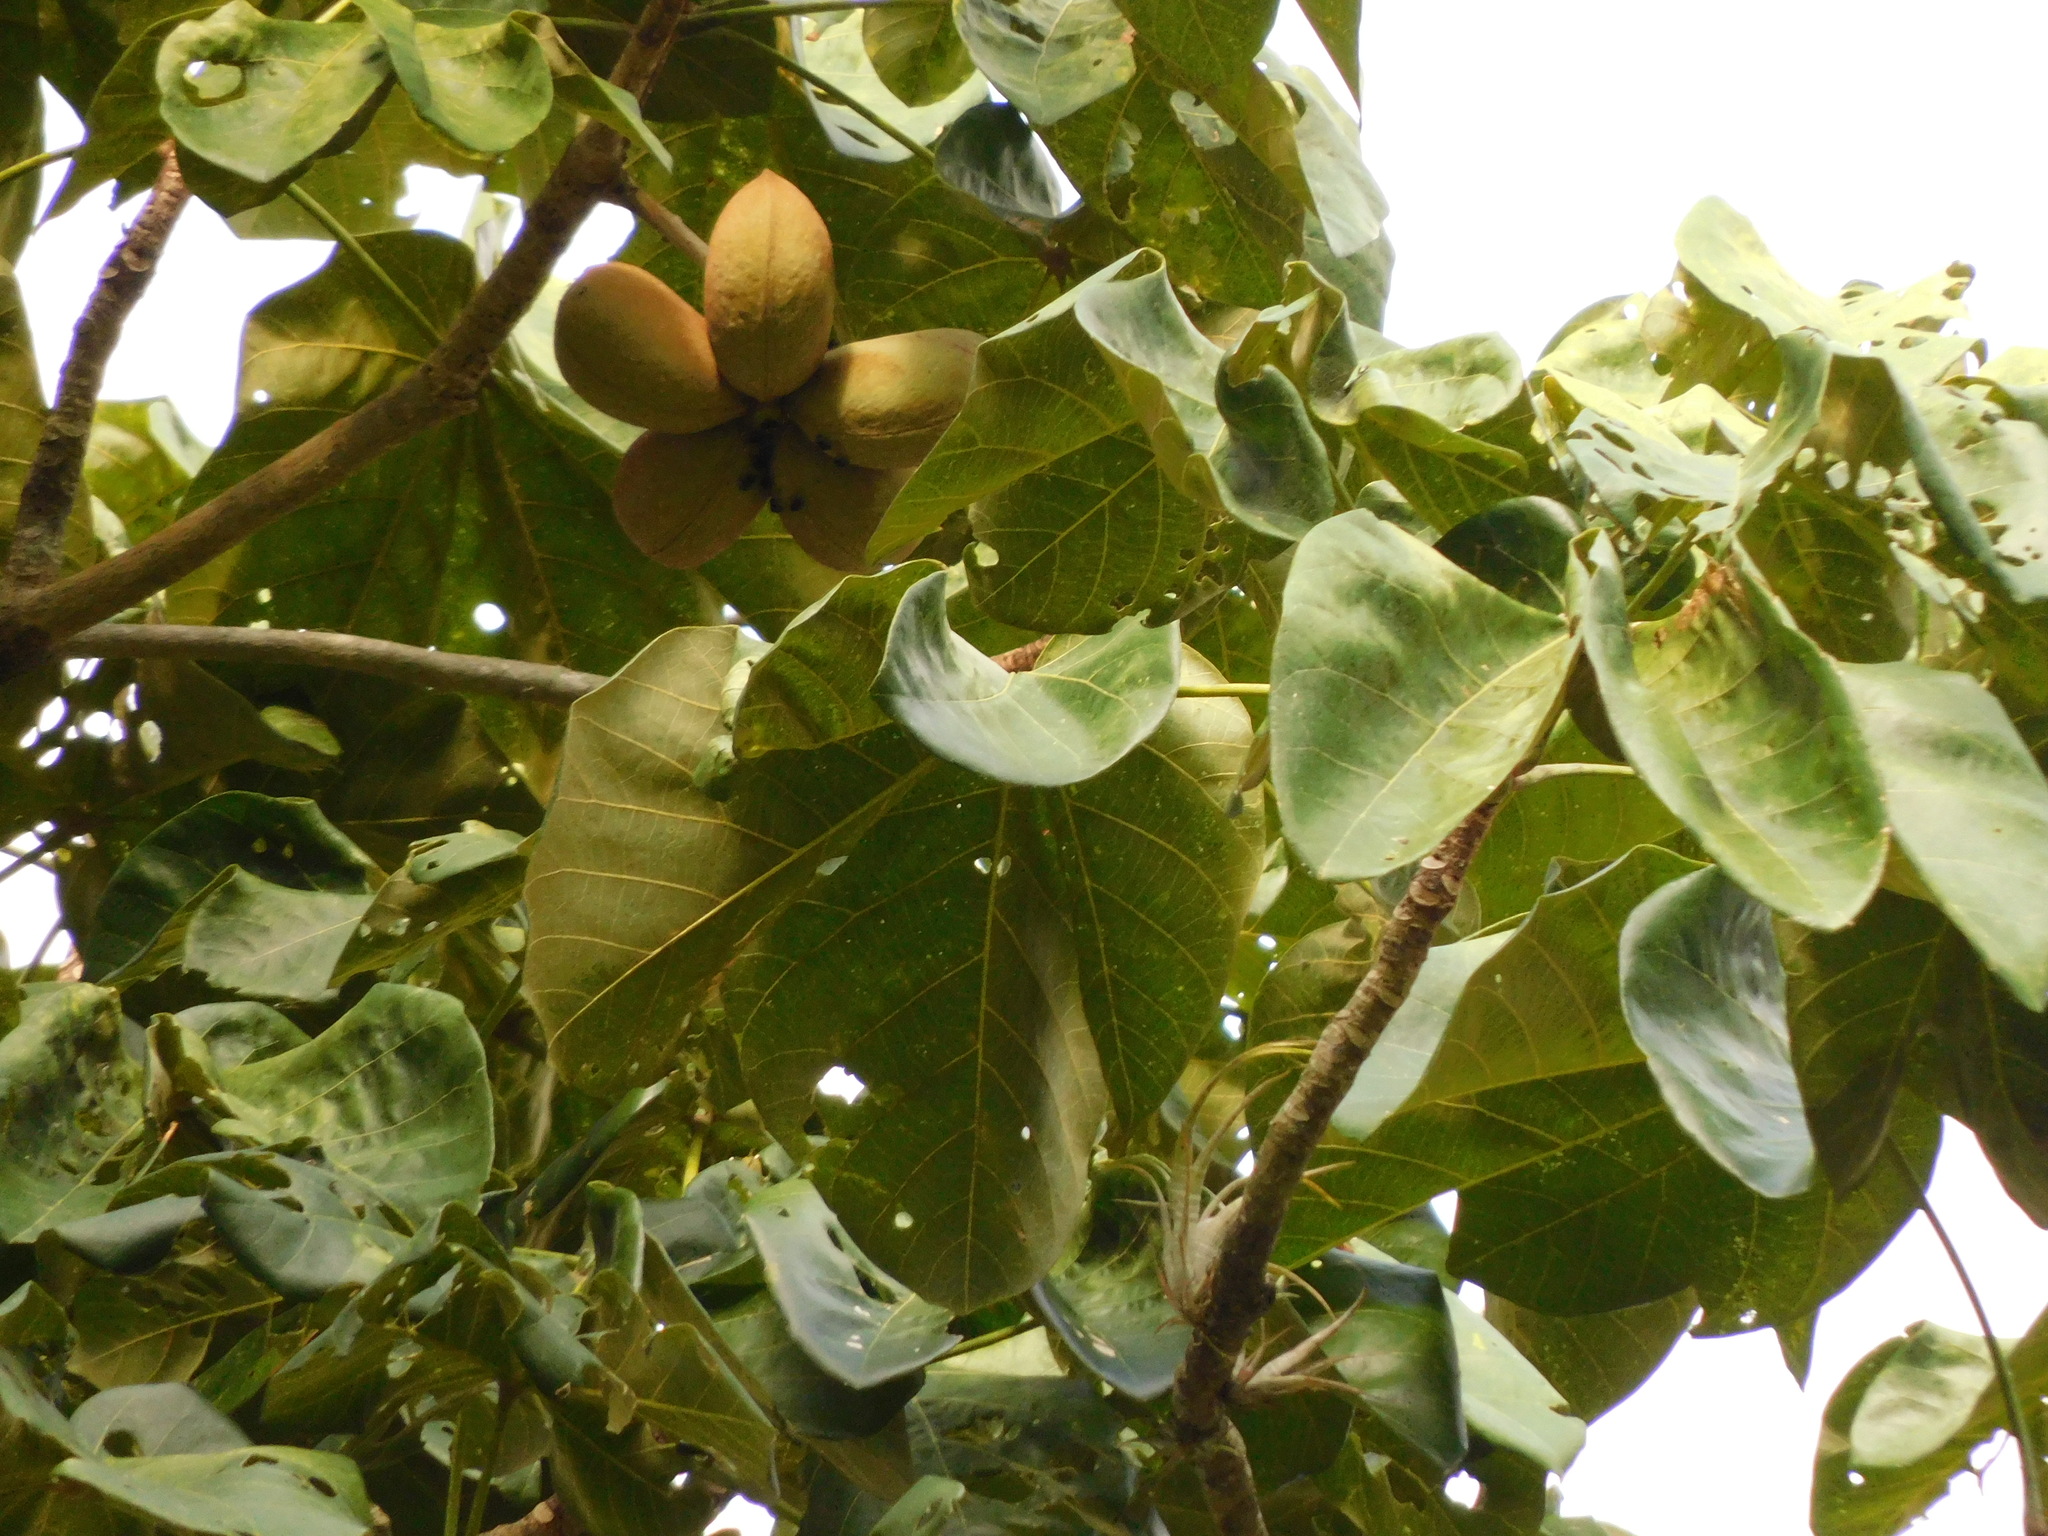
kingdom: Plantae
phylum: Tracheophyta
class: Magnoliopsida
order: Malvales
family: Malvaceae
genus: Sterculia
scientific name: Sterculia apetala
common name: Panama tree
